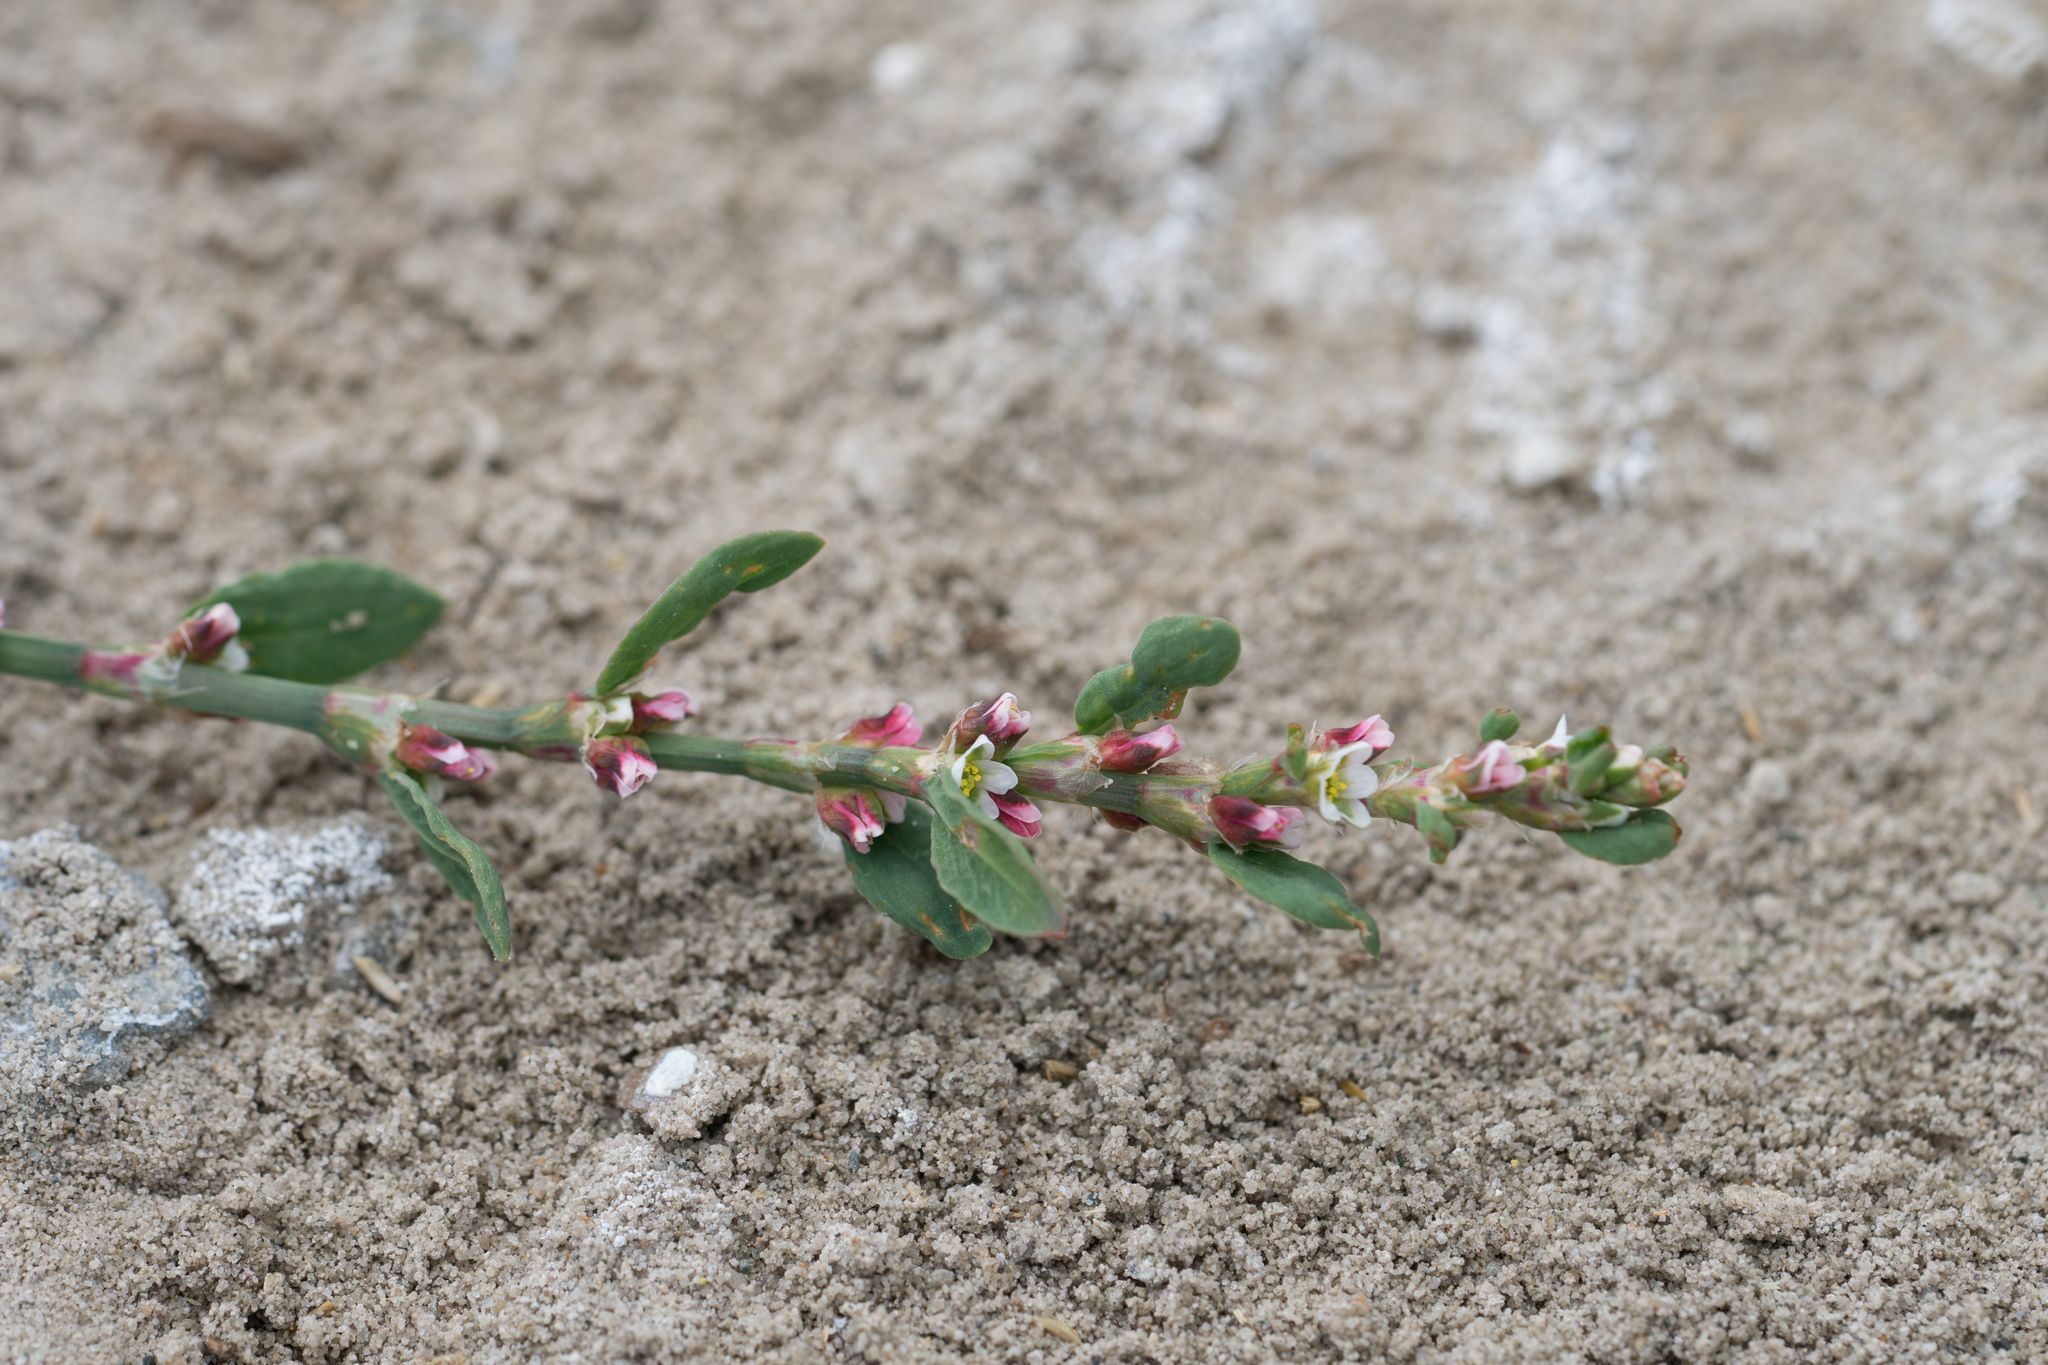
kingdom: Plantae
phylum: Tracheophyta
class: Magnoliopsida
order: Caryophyllales
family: Polygonaceae
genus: Polygonum
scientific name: Polygonum aviculare
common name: Prostrate knotweed
